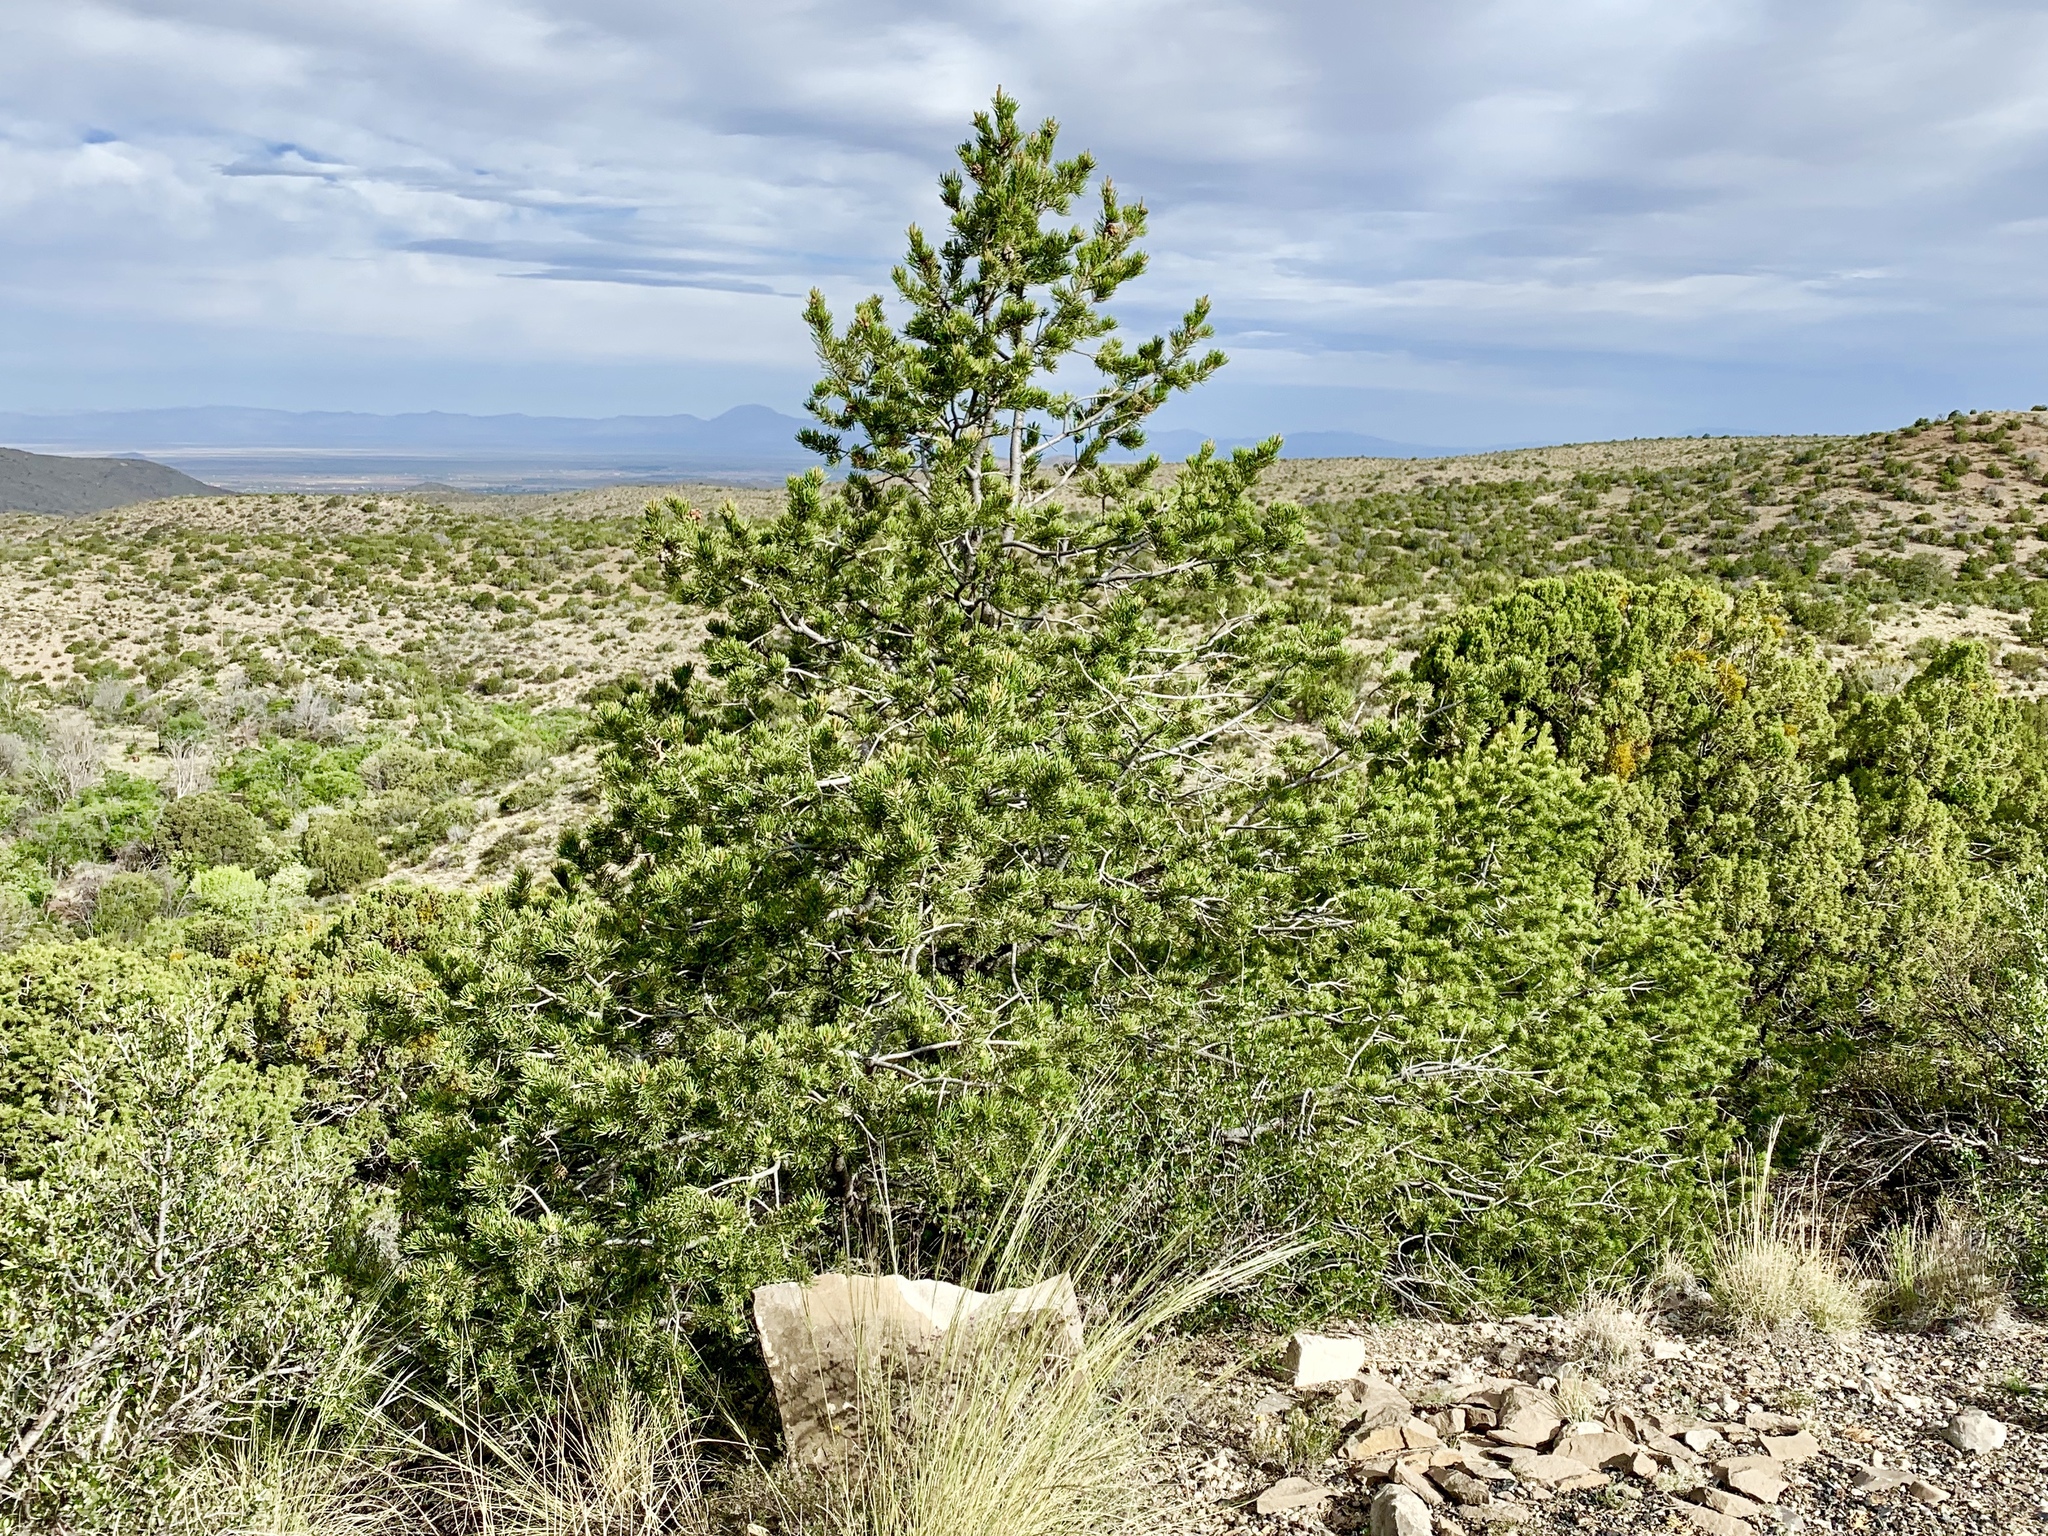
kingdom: Plantae
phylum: Tracheophyta
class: Pinopsida
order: Pinales
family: Pinaceae
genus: Pinus
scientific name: Pinus edulis
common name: Colorado pinyon
